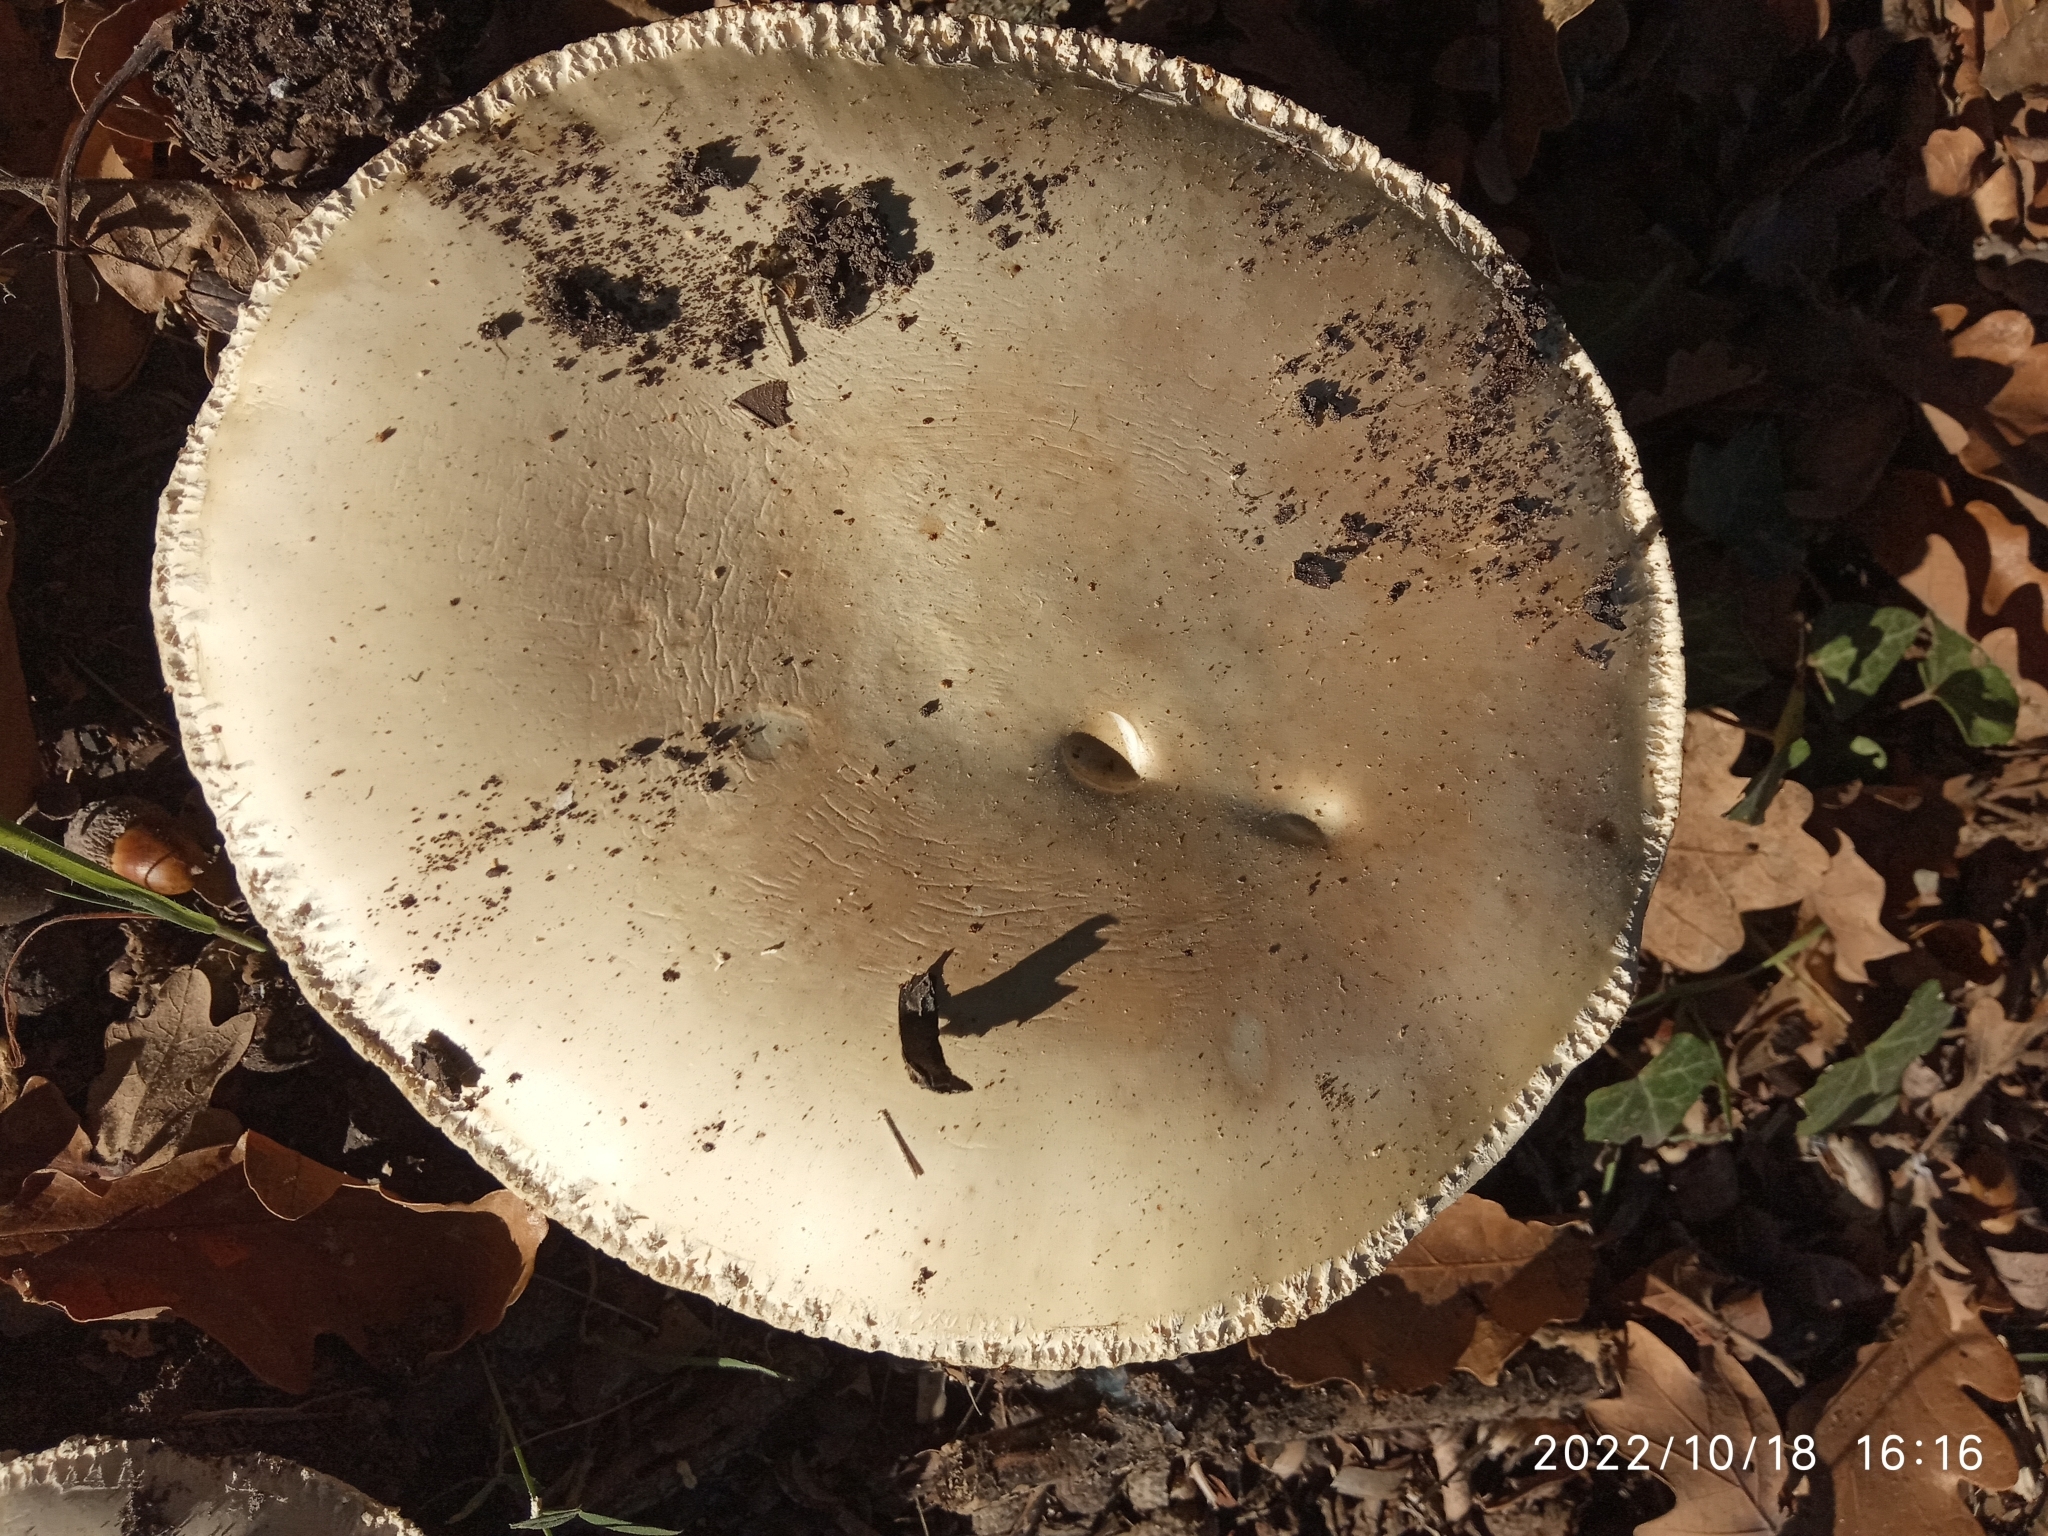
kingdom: Fungi
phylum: Basidiomycota
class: Agaricomycetes
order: Agaricales
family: Amanitaceae
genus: Amanita
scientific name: Amanita ovoidea
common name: Bearded amanita
